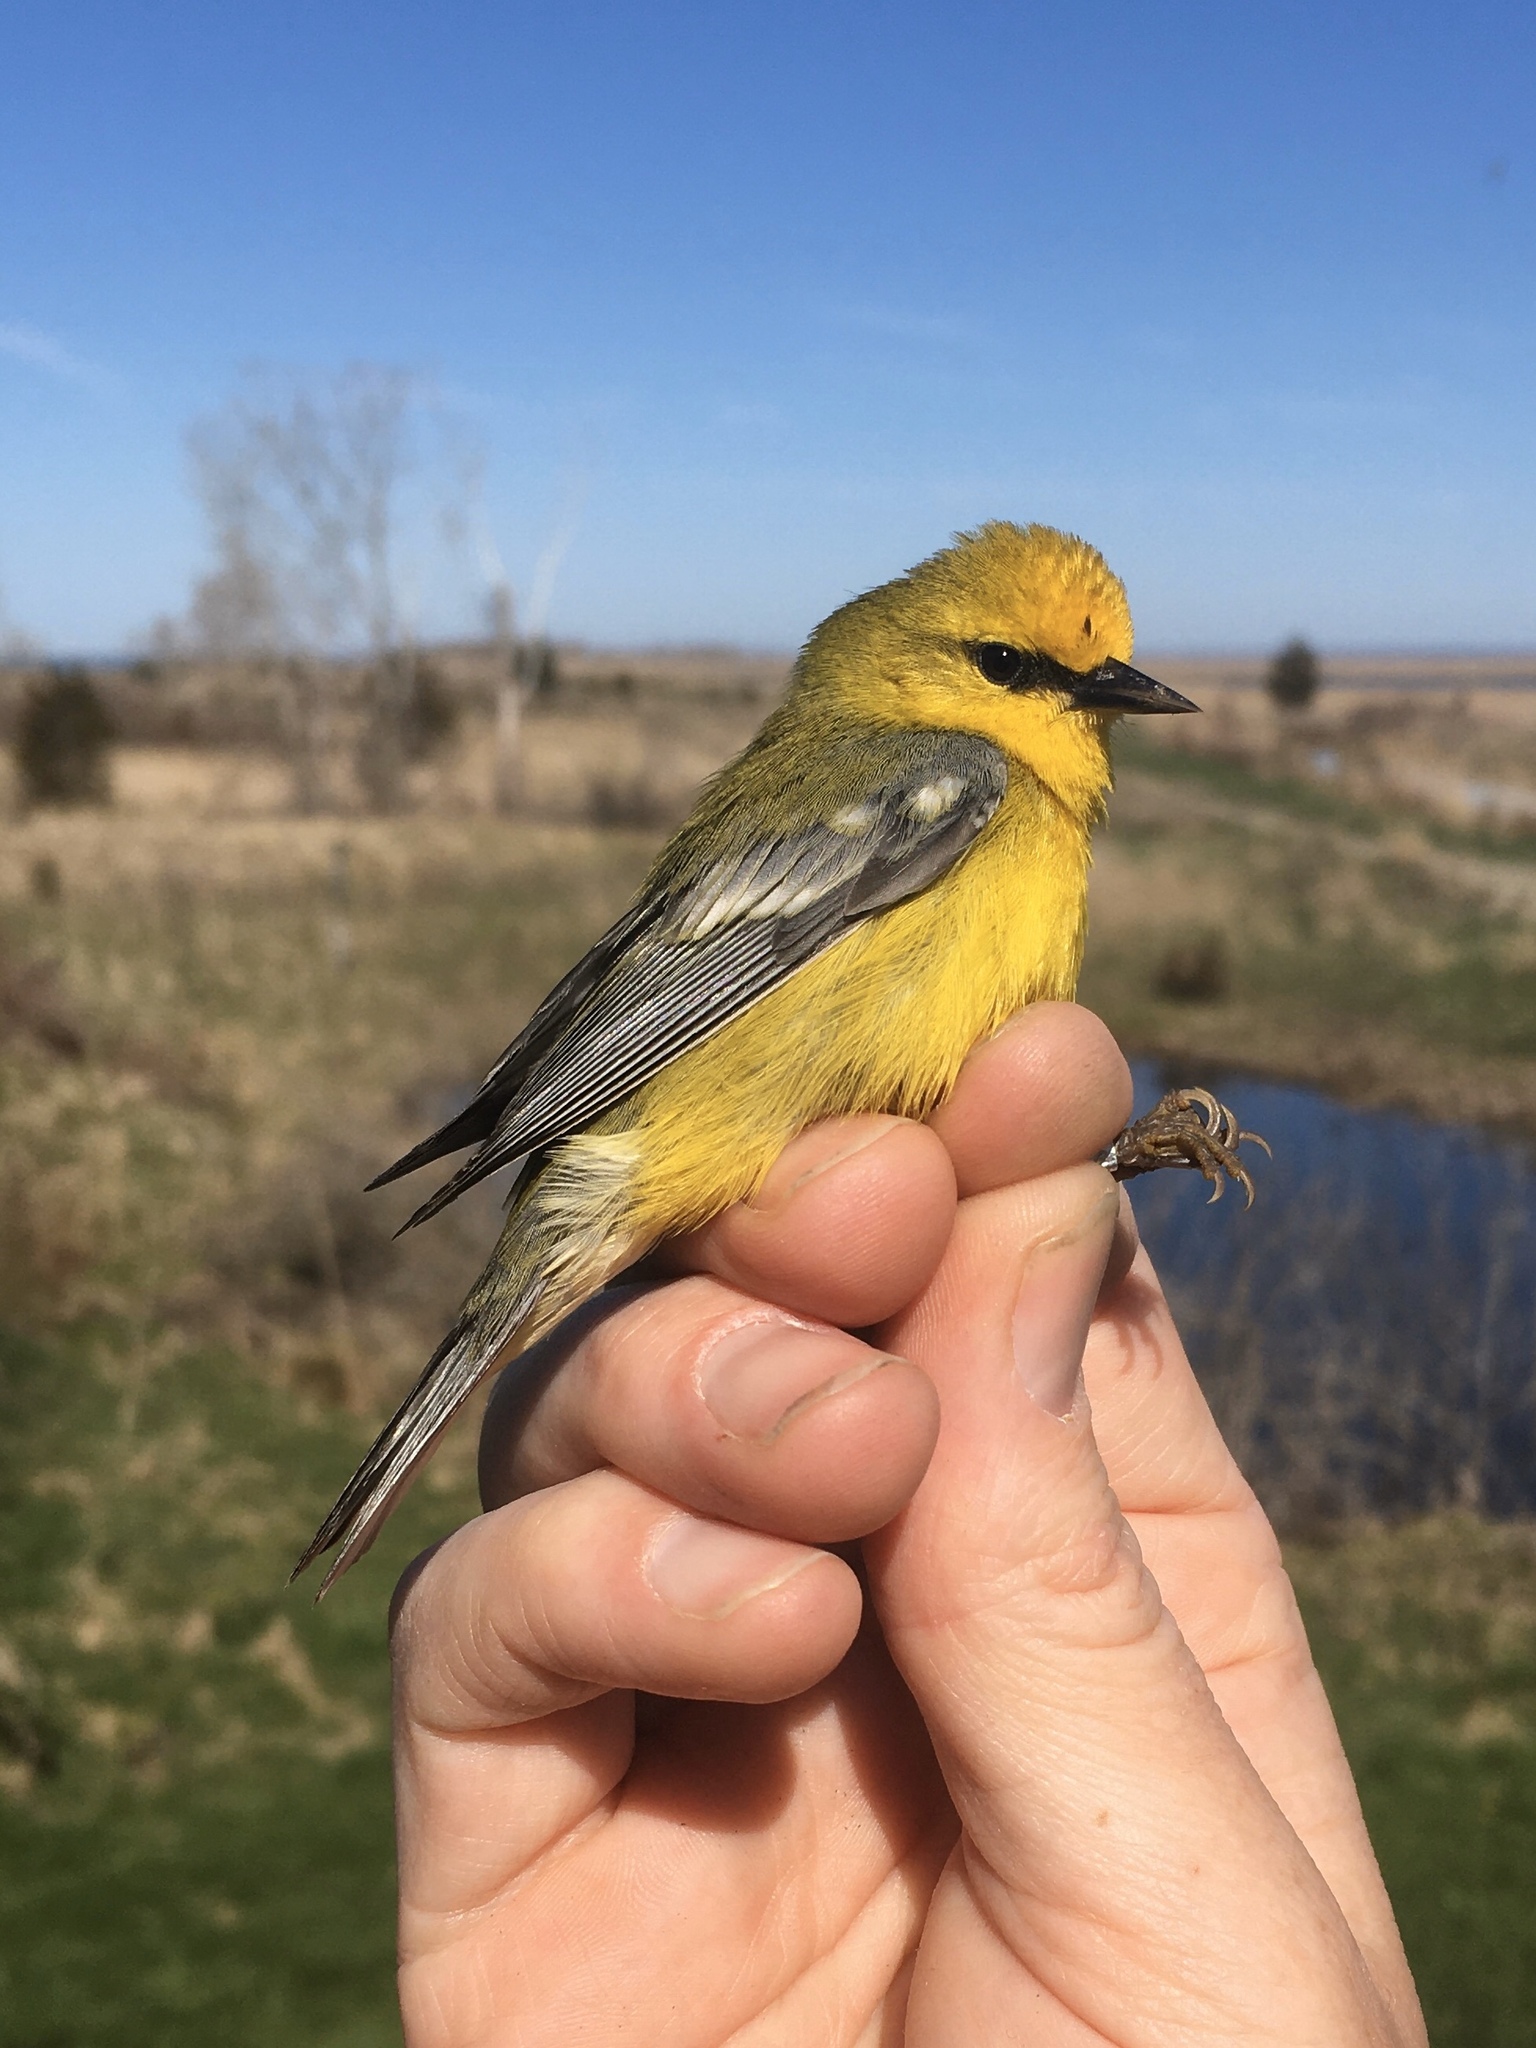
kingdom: Animalia
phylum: Chordata
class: Aves
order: Passeriformes
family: Parulidae
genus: Vermivora
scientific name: Vermivora cyanoptera
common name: Blue-winged warbler
